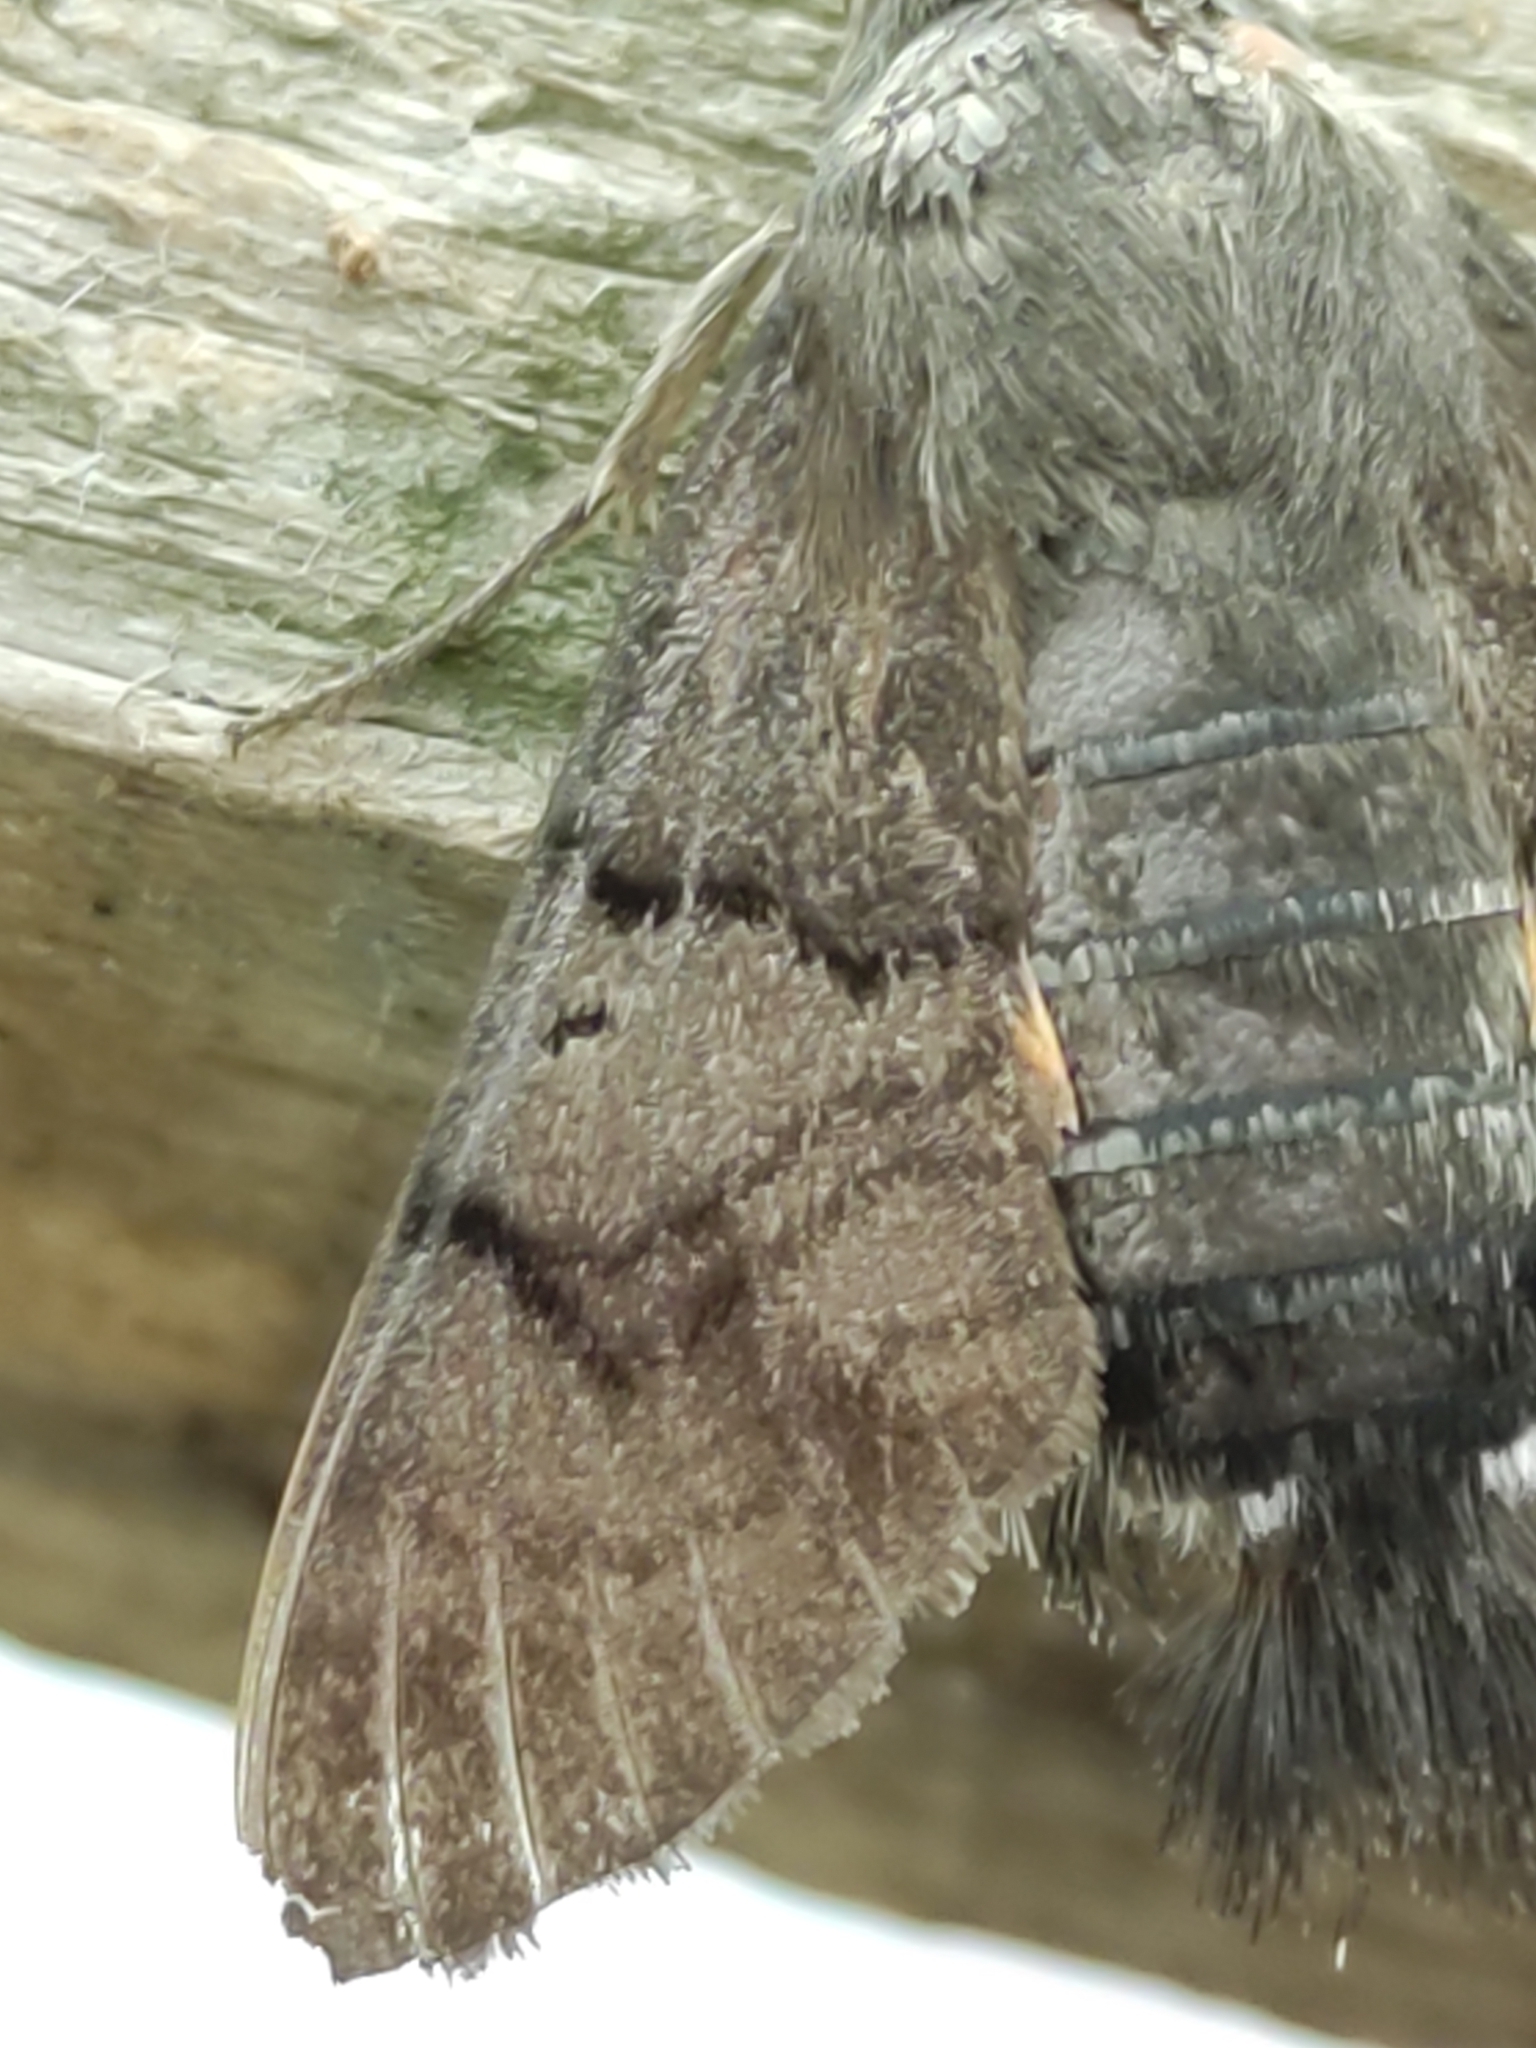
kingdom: Animalia
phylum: Arthropoda
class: Insecta
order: Lepidoptera
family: Sphingidae
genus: Macroglossum
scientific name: Macroglossum stellatarum
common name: Humming-bird hawk-moth
